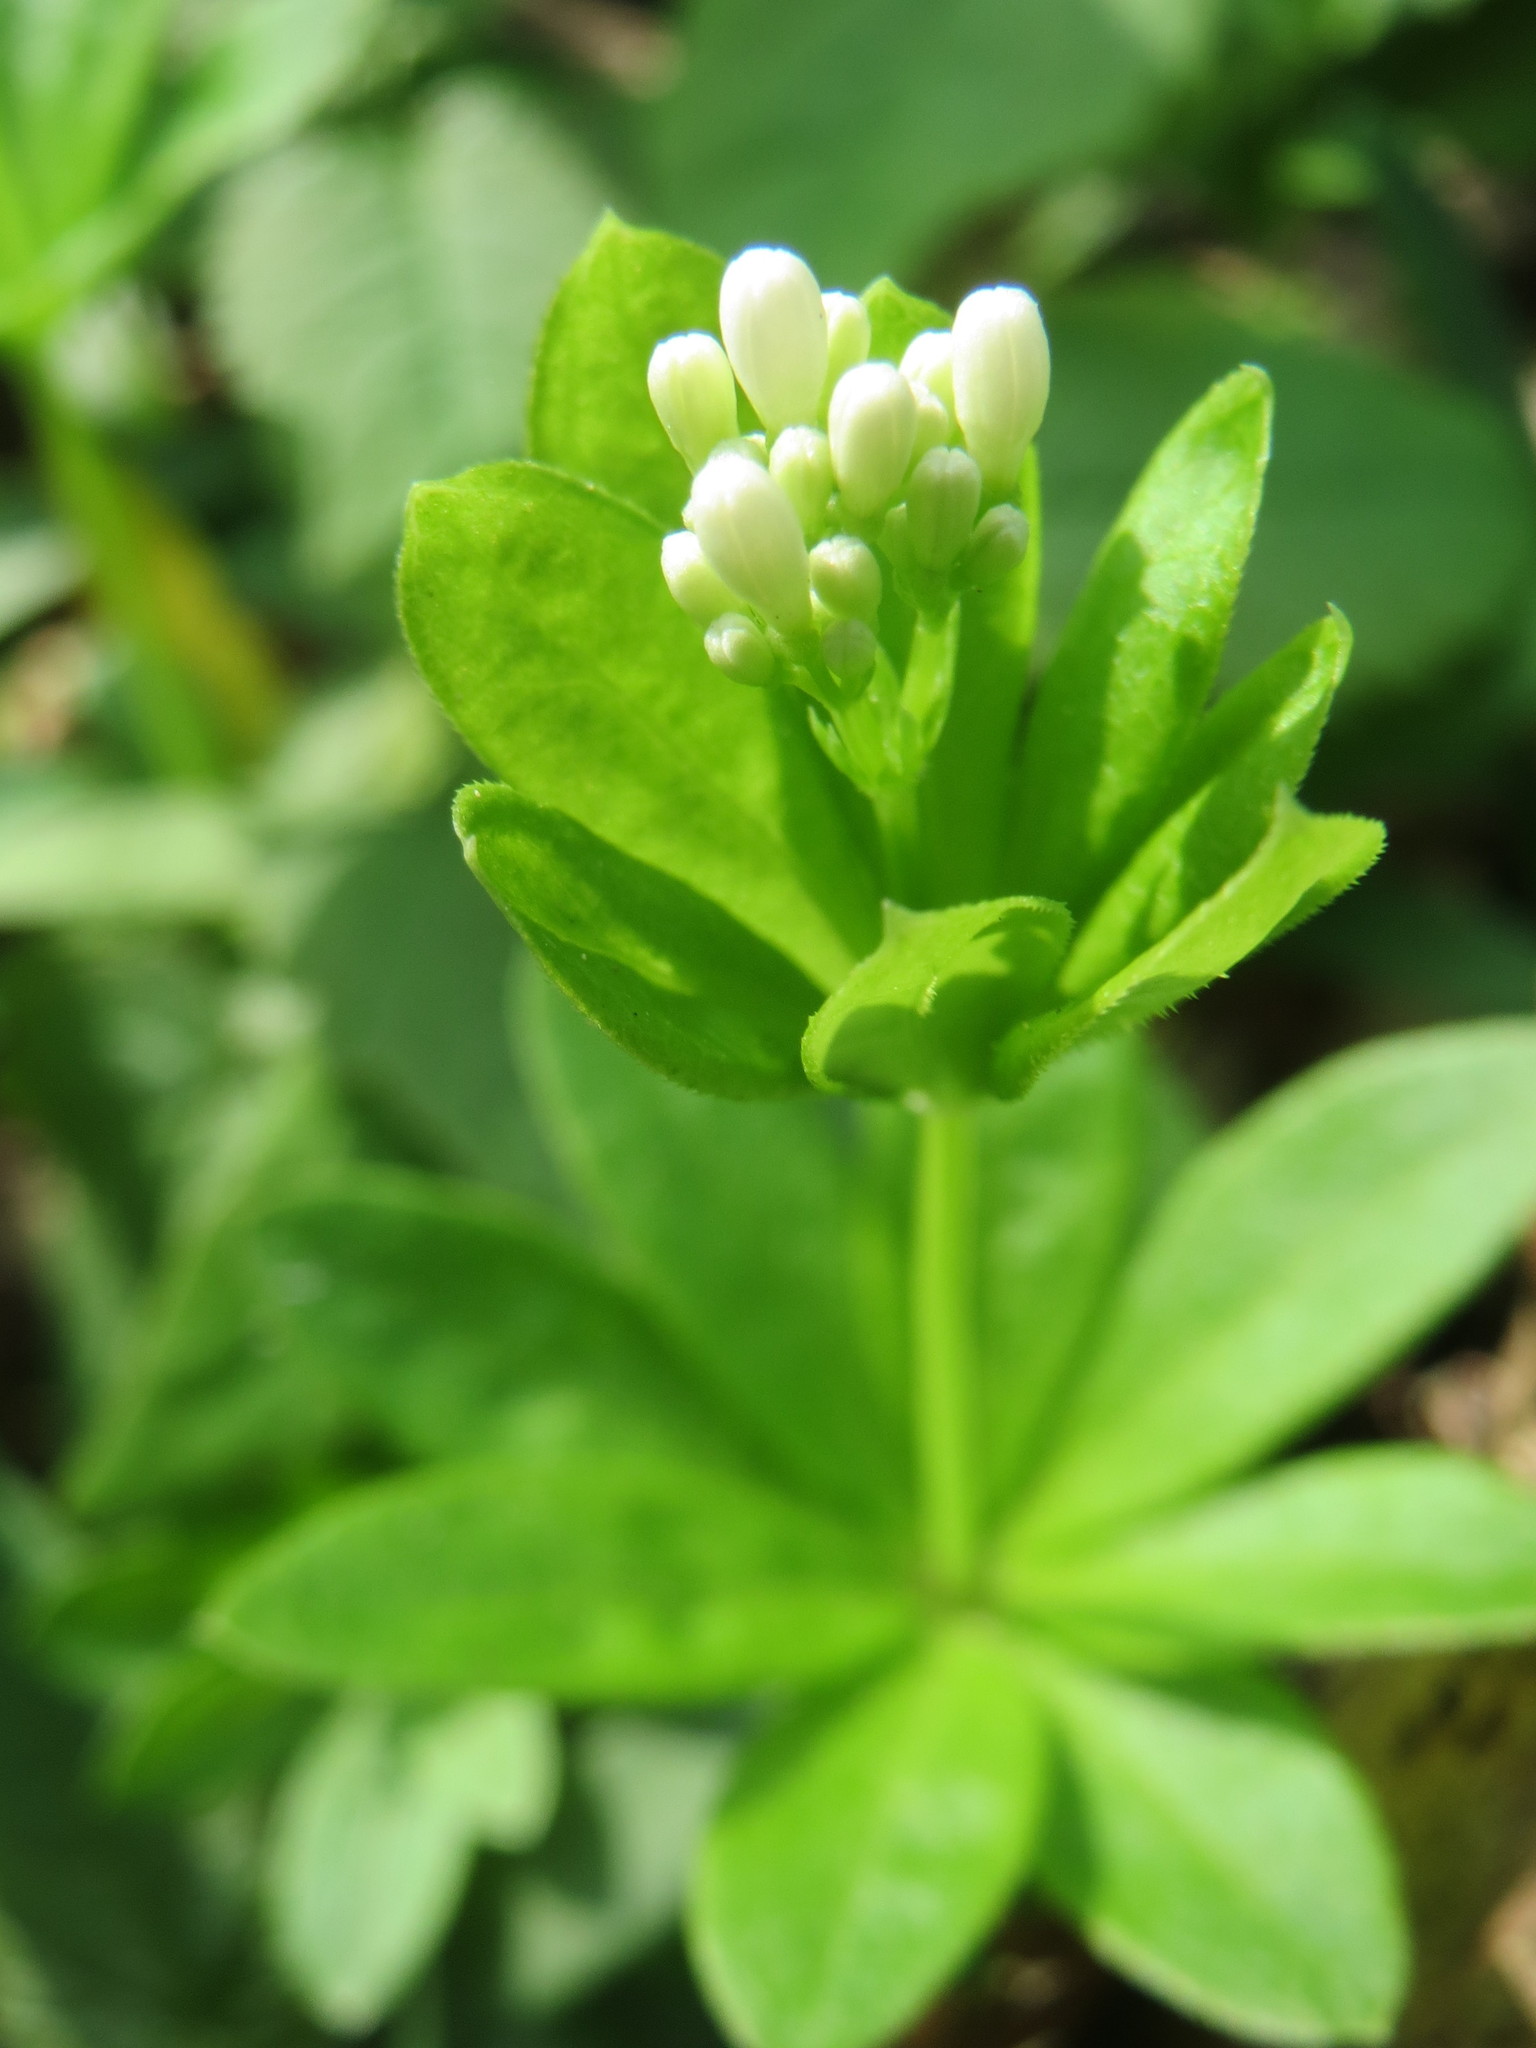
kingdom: Plantae
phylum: Tracheophyta
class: Magnoliopsida
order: Gentianales
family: Rubiaceae
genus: Galium
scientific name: Galium odoratum
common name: Sweet woodruff
